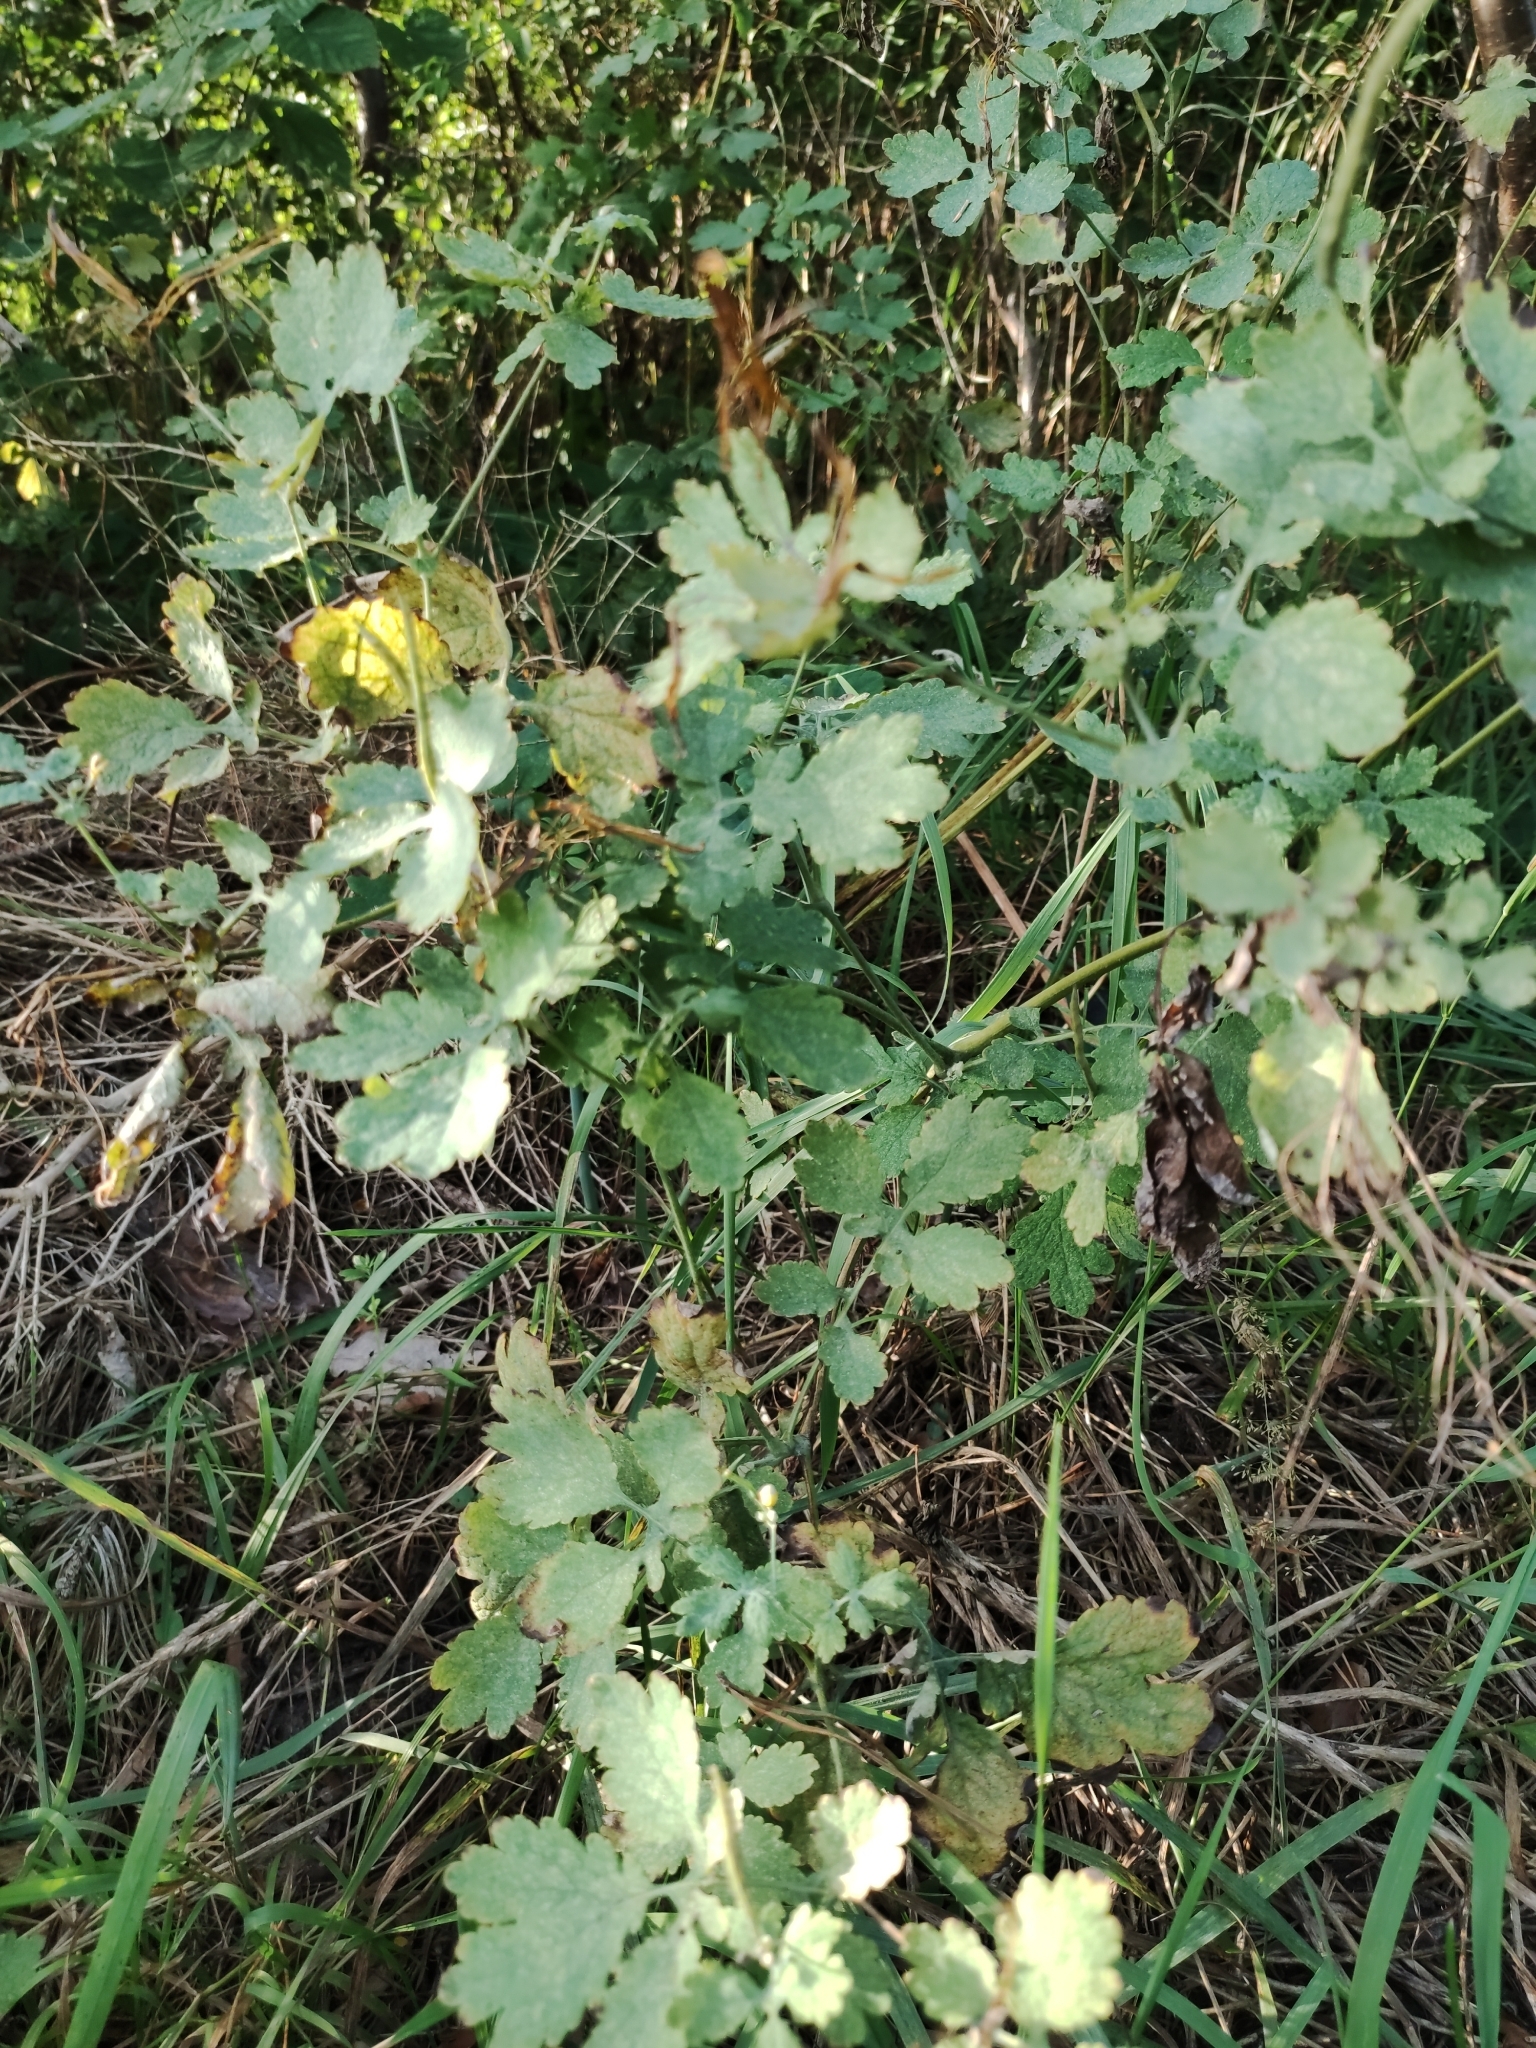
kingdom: Plantae
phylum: Tracheophyta
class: Magnoliopsida
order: Ranunculales
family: Papaveraceae
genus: Chelidonium
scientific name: Chelidonium majus
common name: Greater celandine
